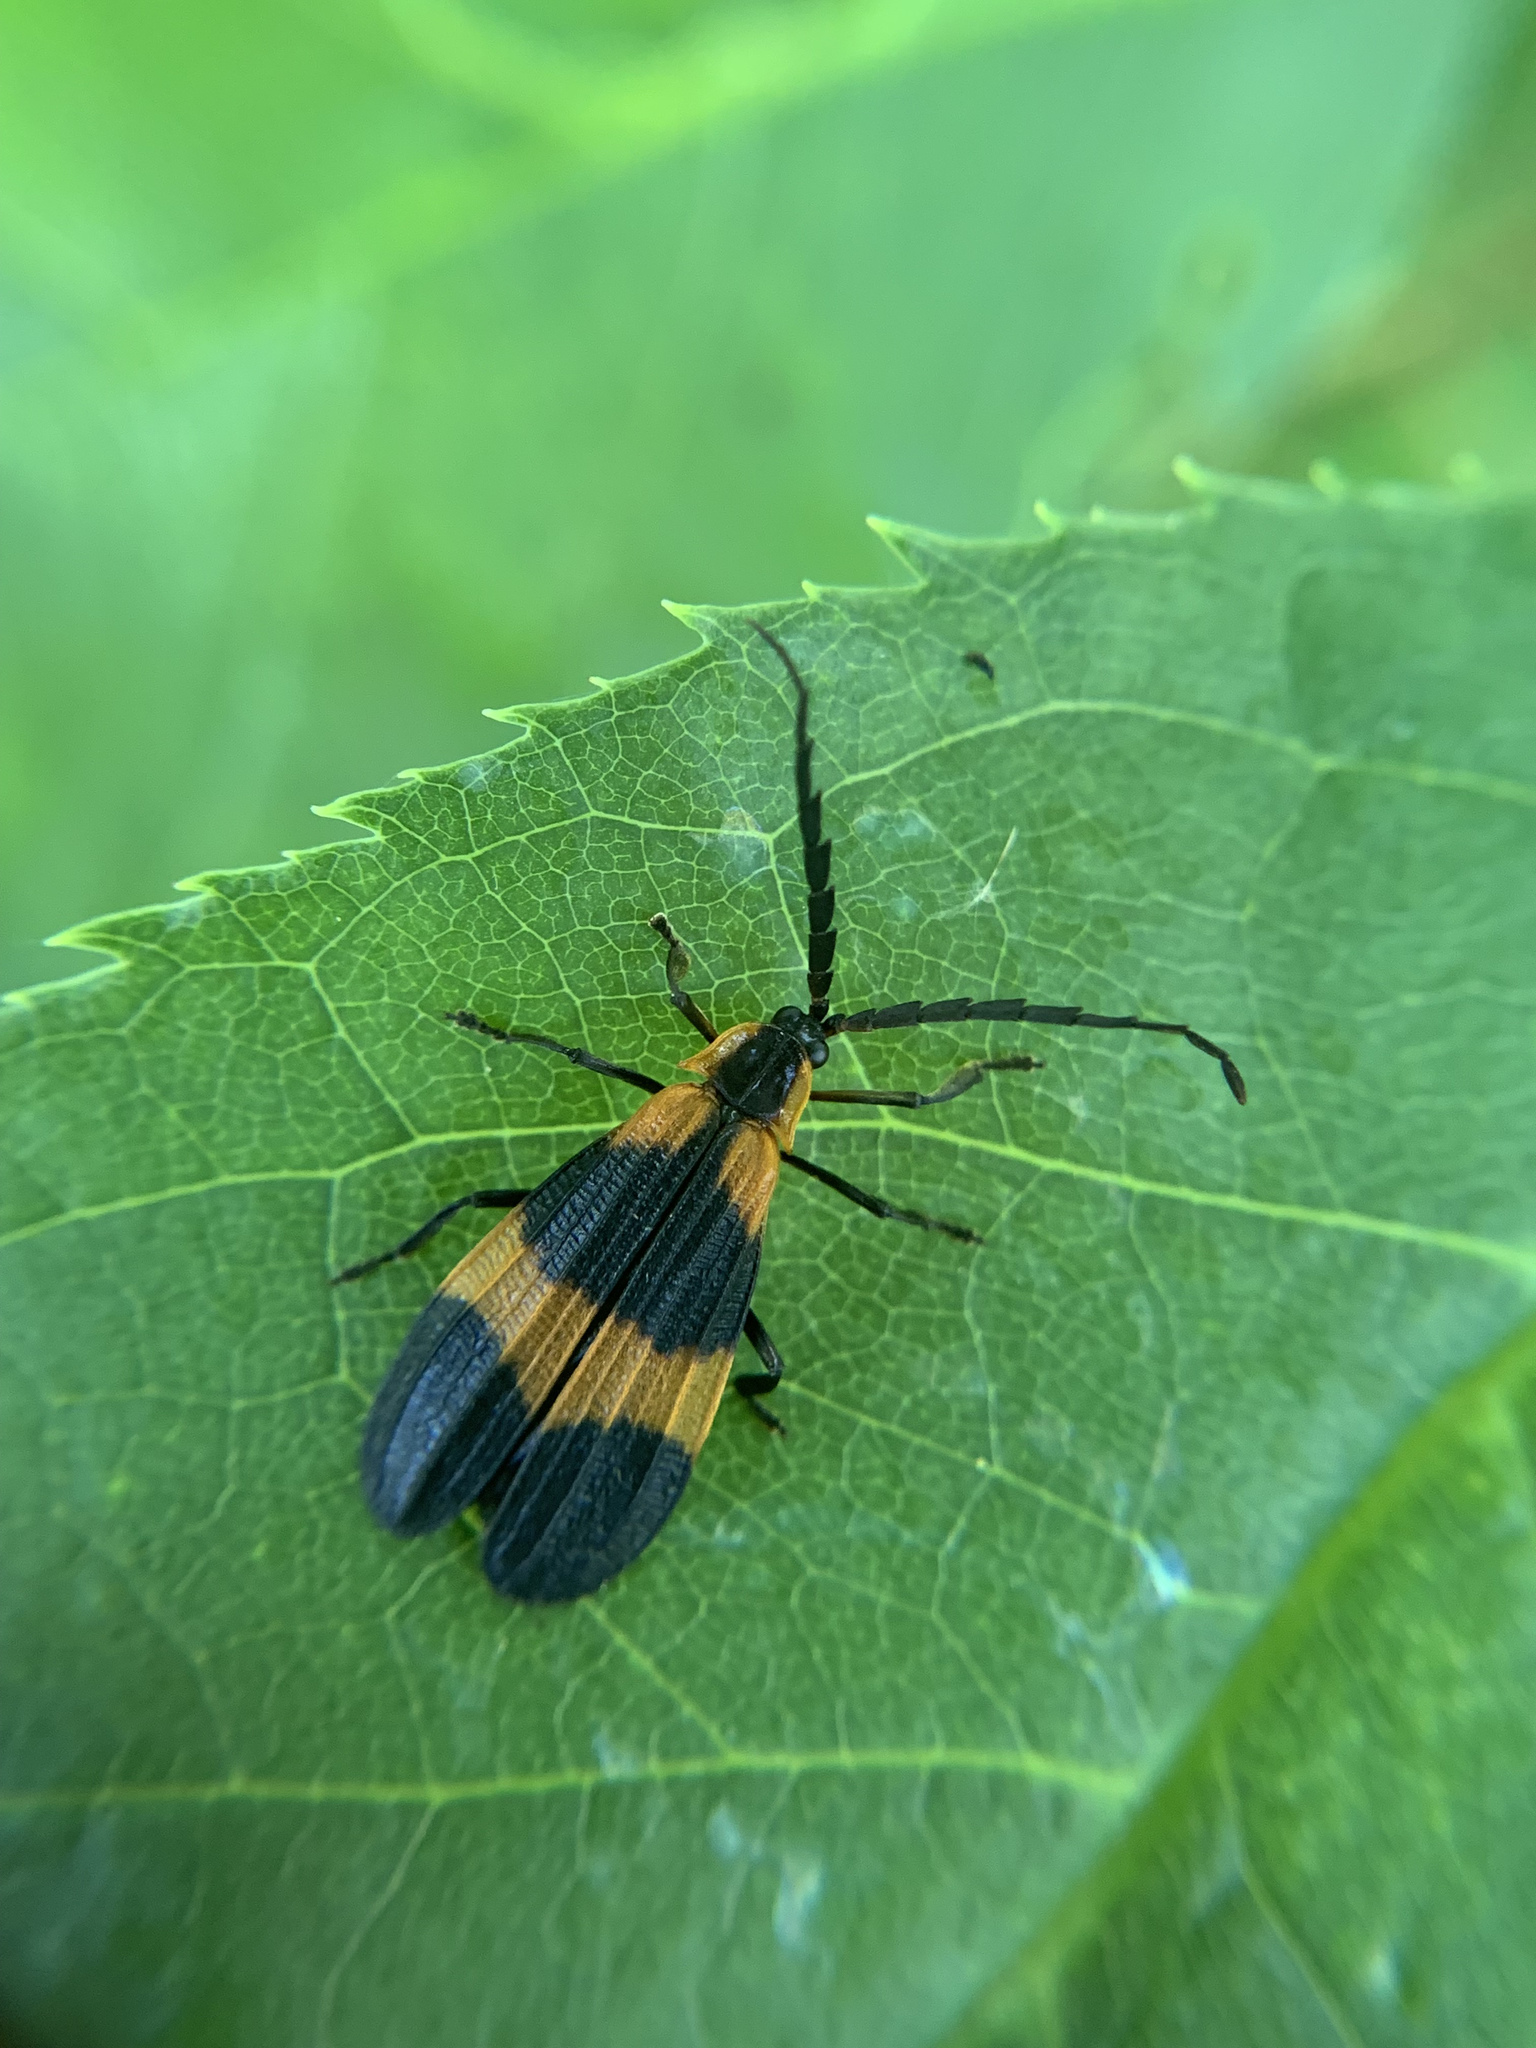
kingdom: Animalia
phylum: Arthropoda
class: Insecta
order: Coleoptera
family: Lycidae
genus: Calopteron
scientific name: Calopteron reticulatum
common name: Banded net-winged beetle
